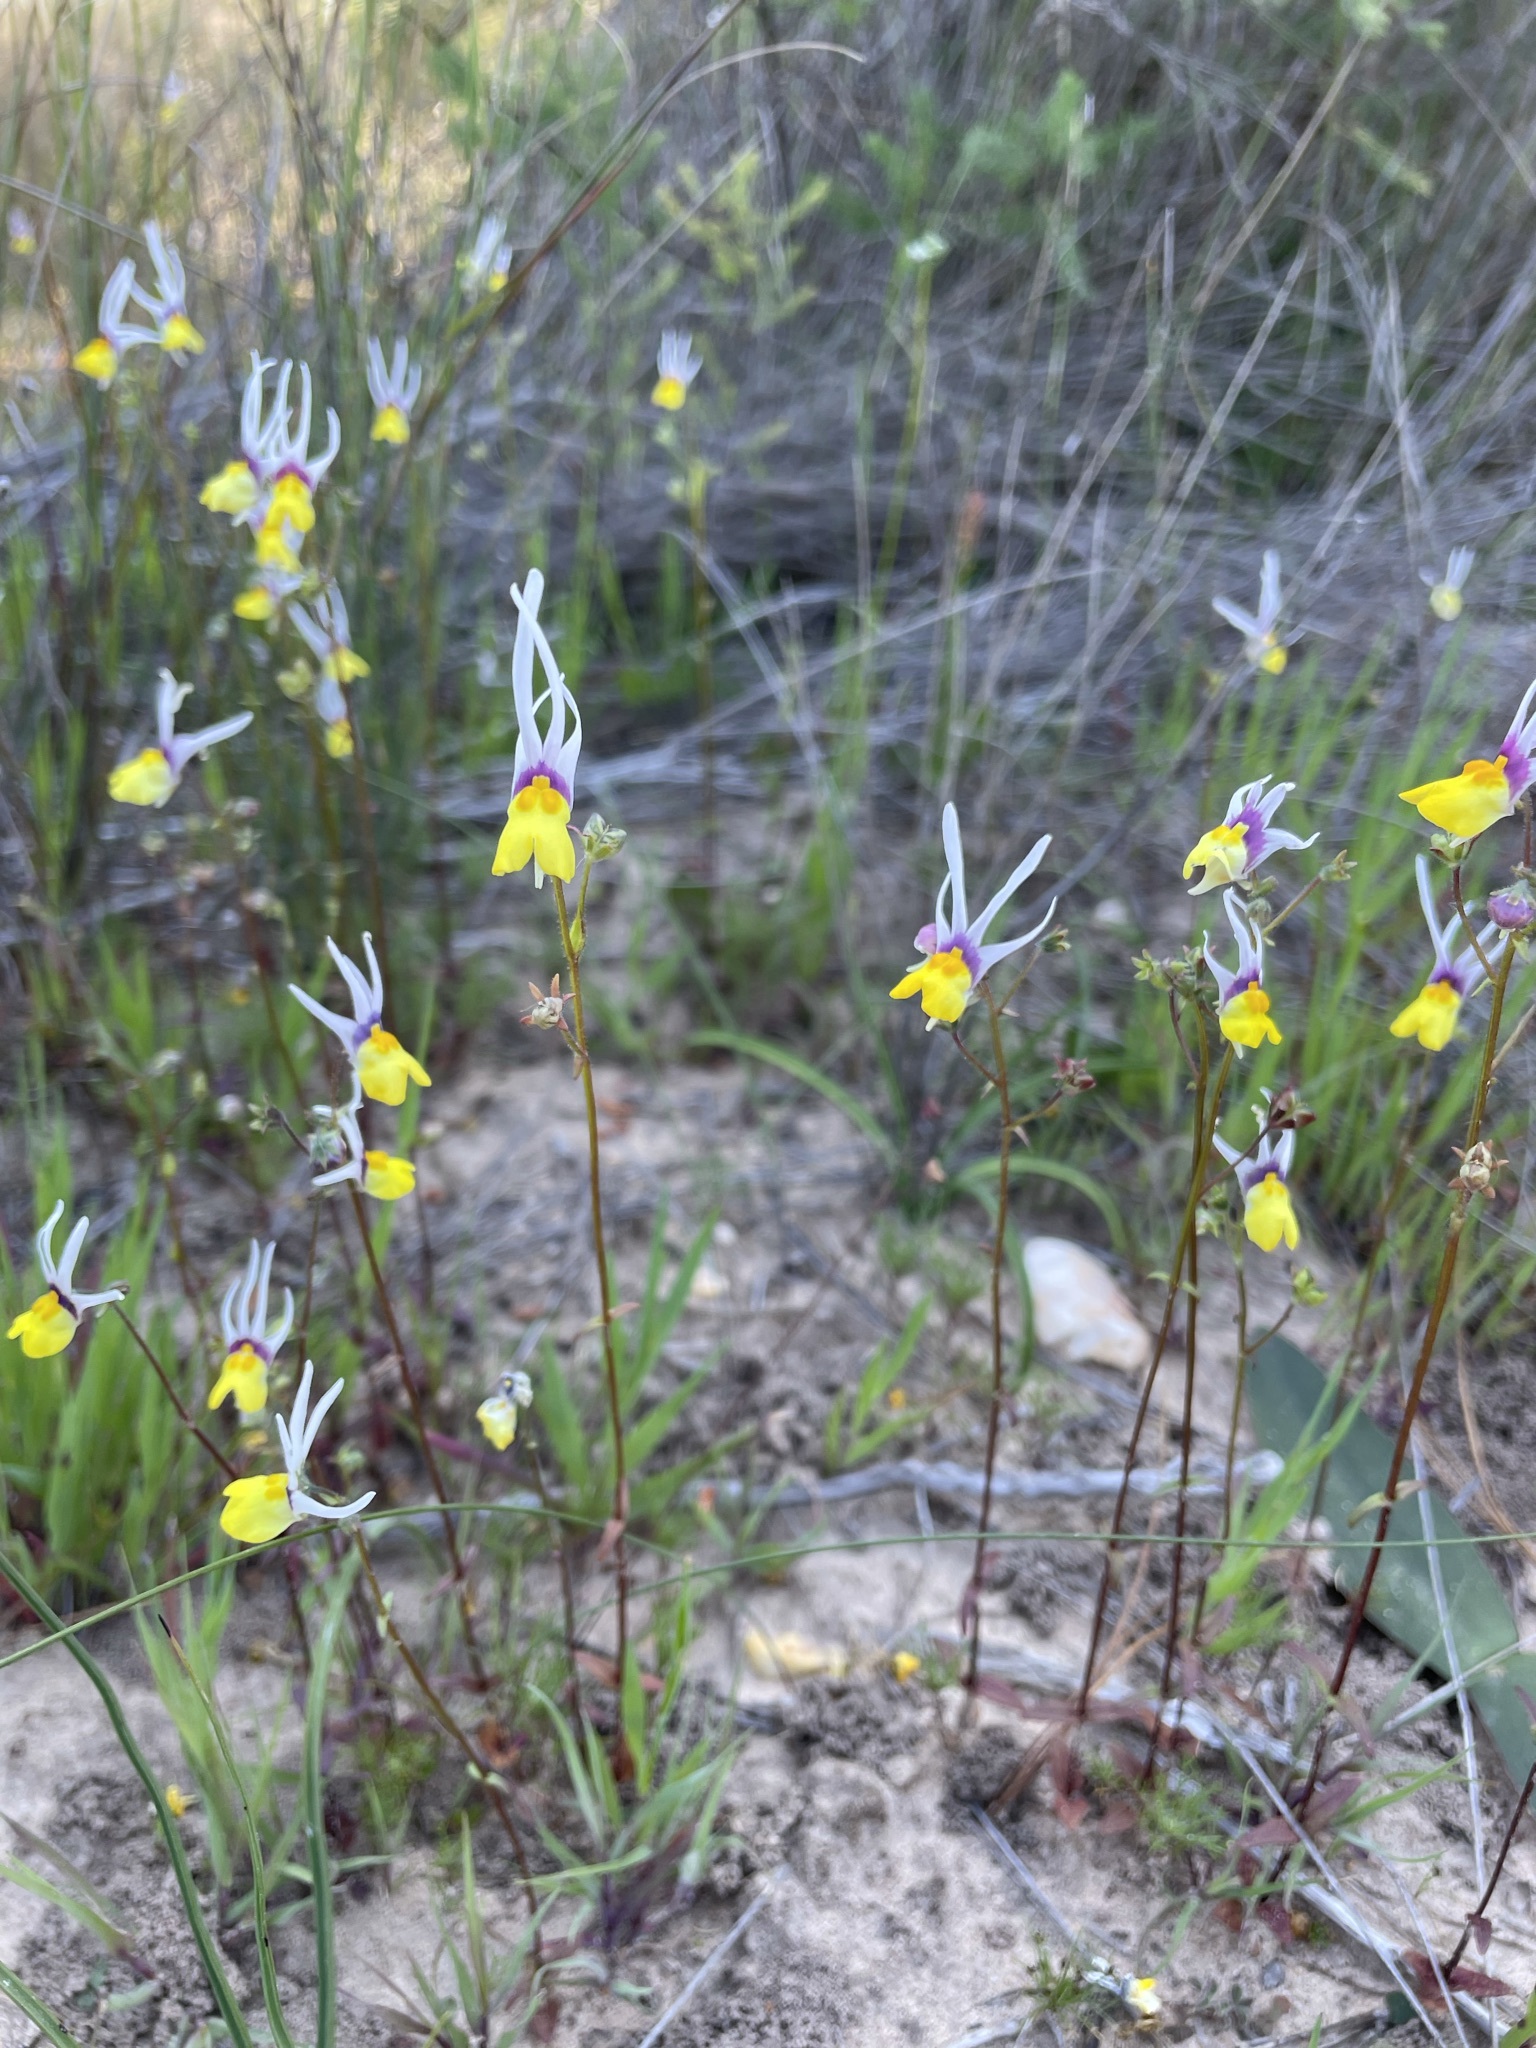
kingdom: Plantae
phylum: Tracheophyta
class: Magnoliopsida
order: Lamiales
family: Scrophulariaceae
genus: Nemesia
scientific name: Nemesia cheiranthus
